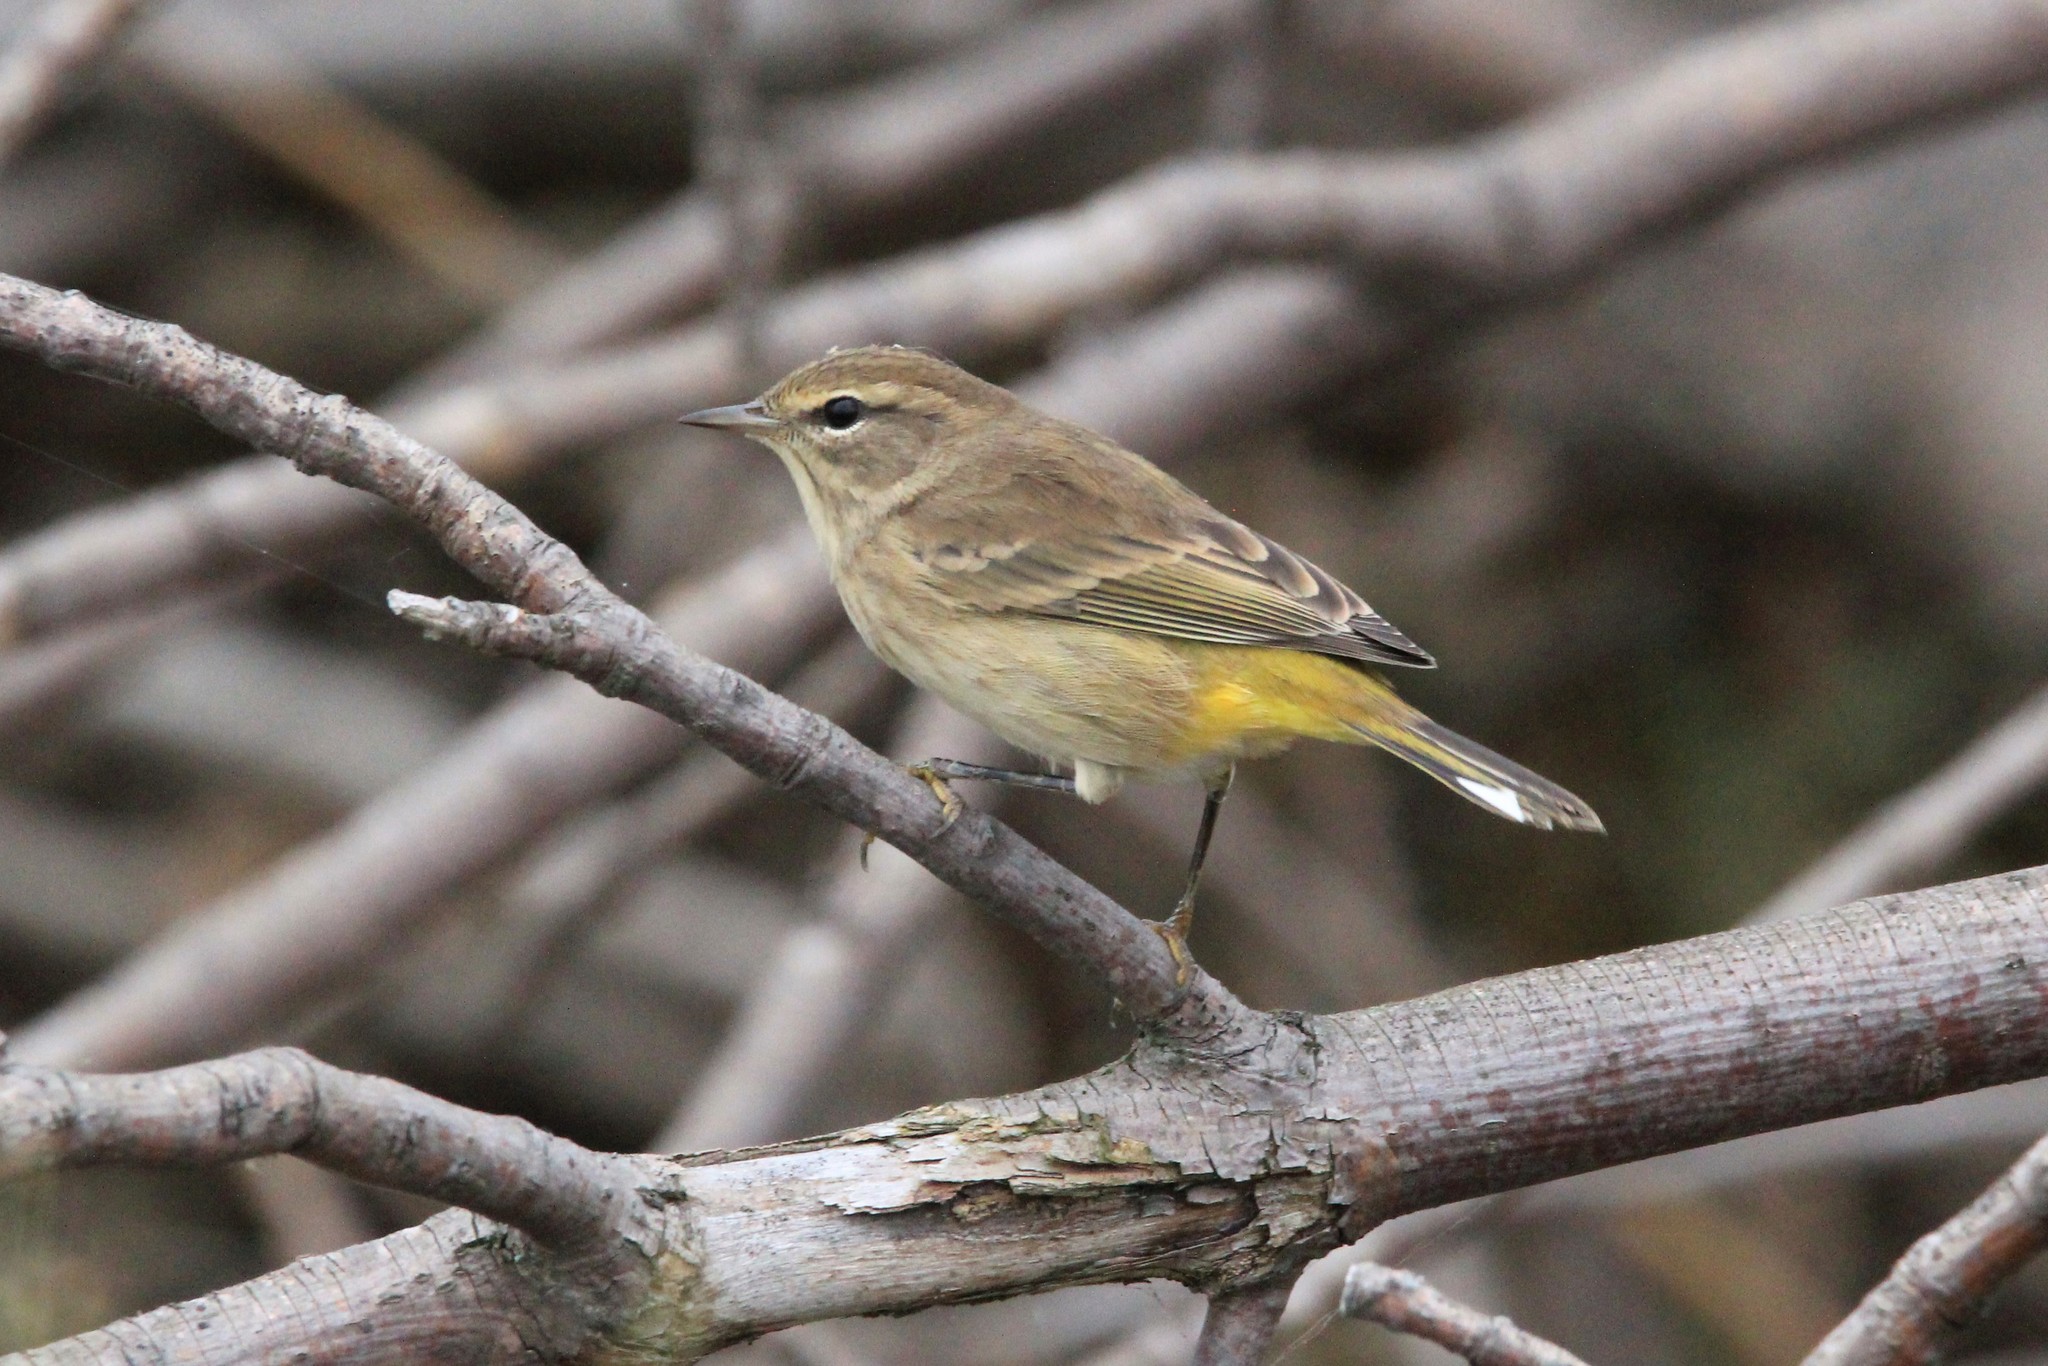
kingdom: Animalia
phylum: Chordata
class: Aves
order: Passeriformes
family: Parulidae
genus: Setophaga
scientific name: Setophaga palmarum
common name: Palm warbler
